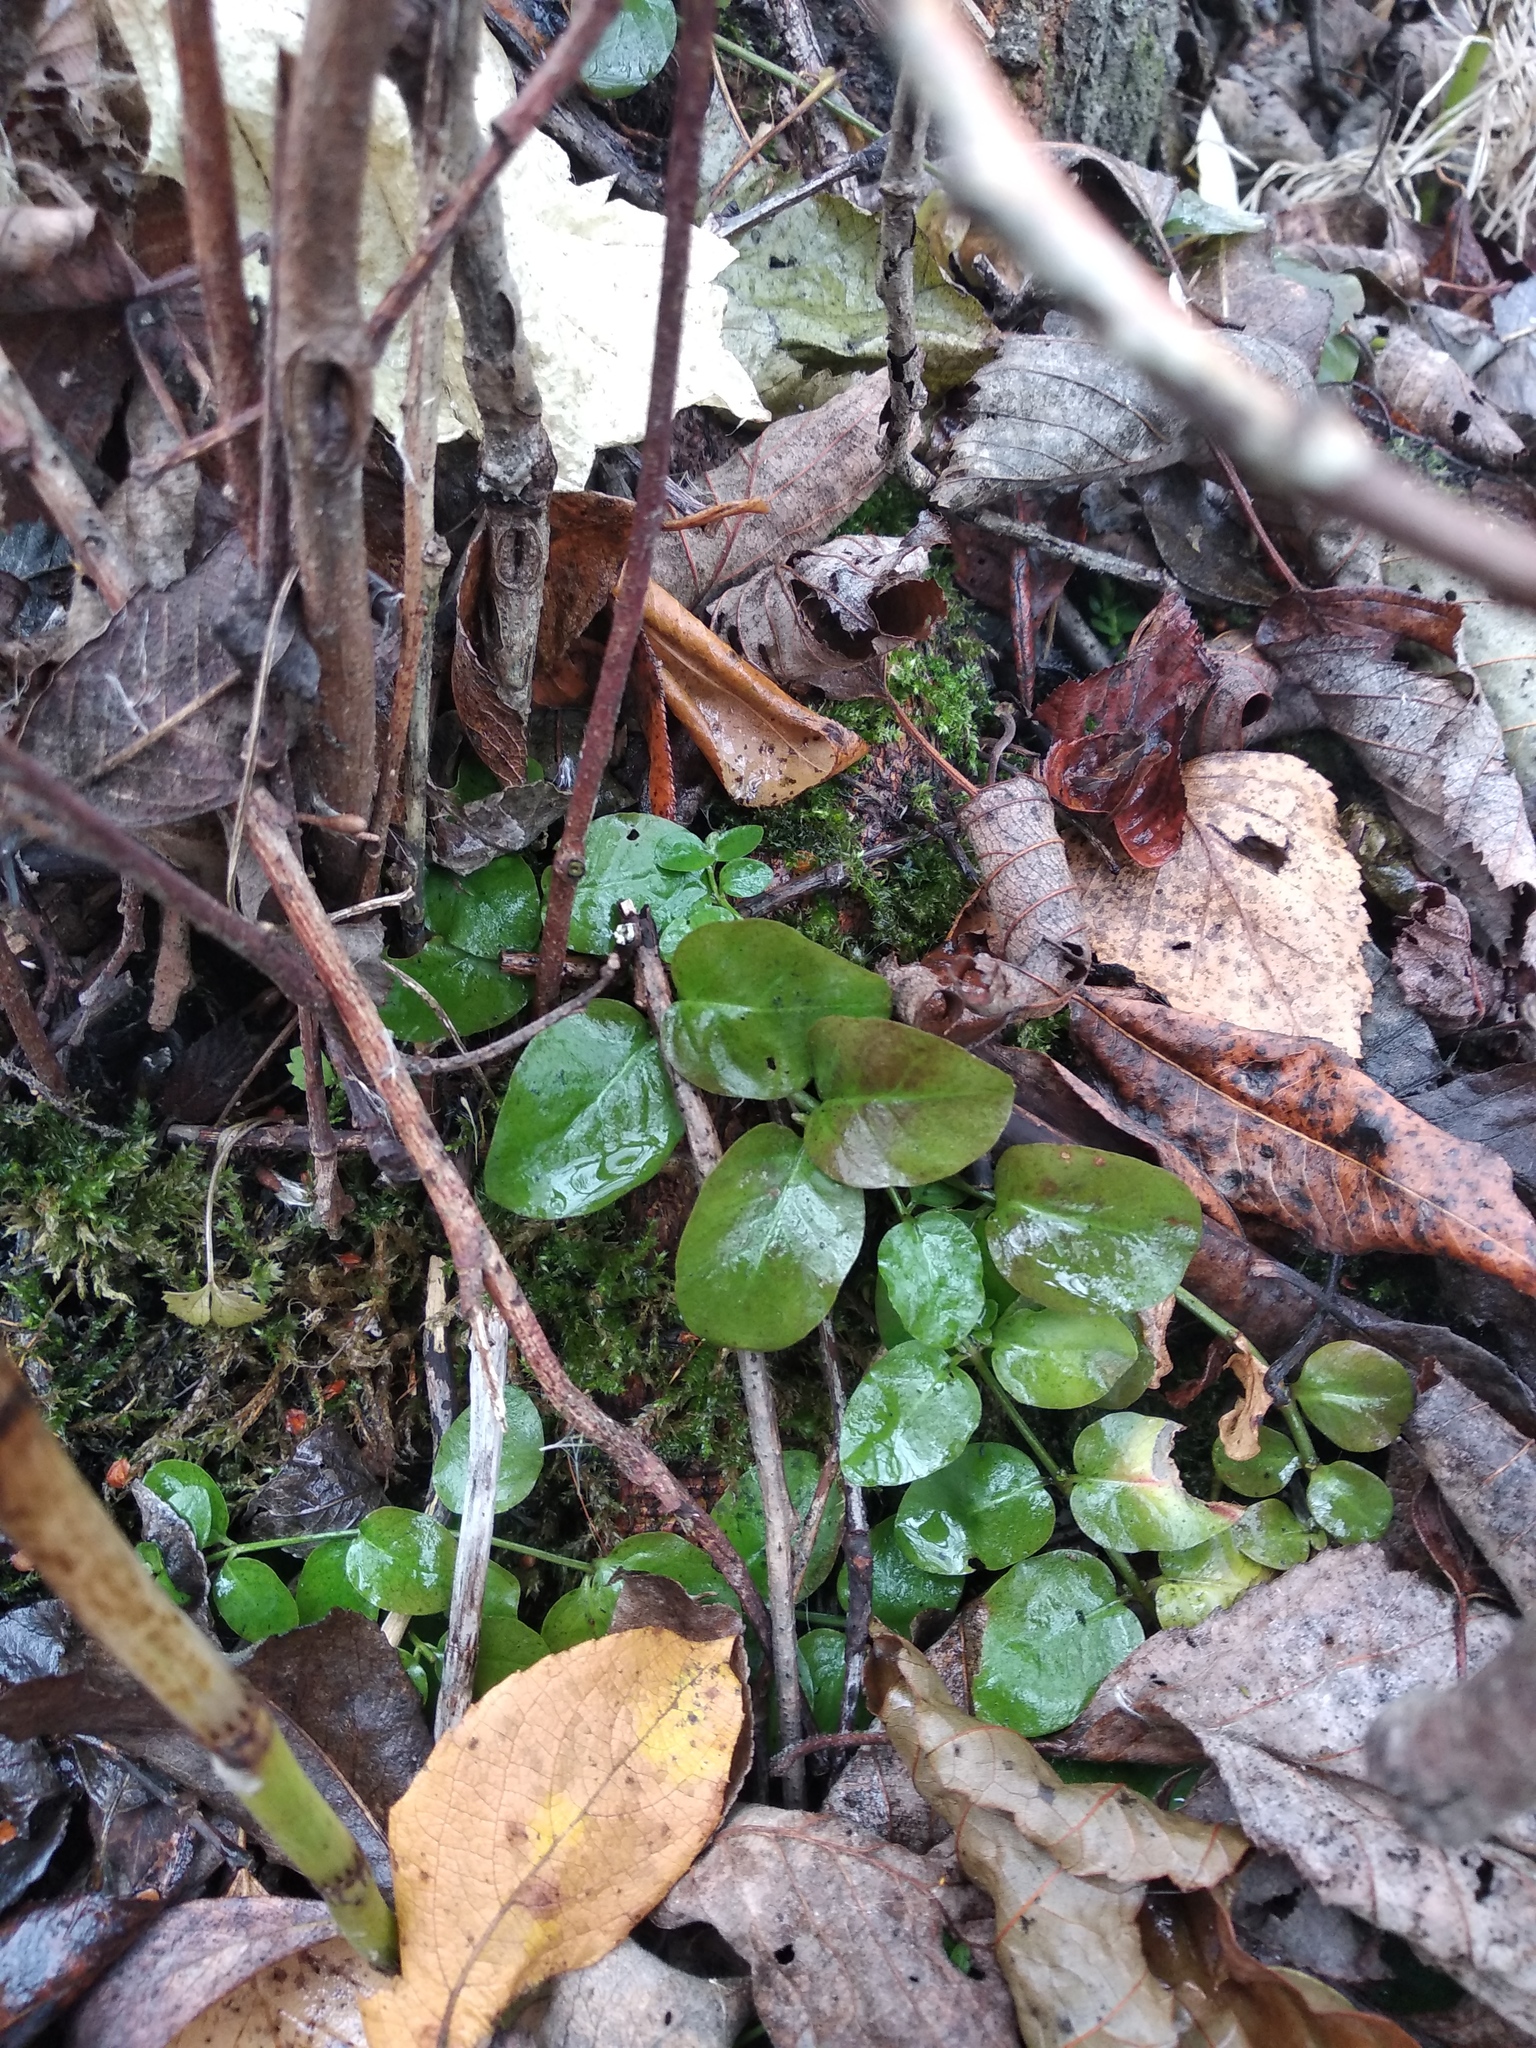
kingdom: Plantae
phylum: Tracheophyta
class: Magnoliopsida
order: Ericales
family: Primulaceae
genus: Lysimachia
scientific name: Lysimachia nummularia
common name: Moneywort
